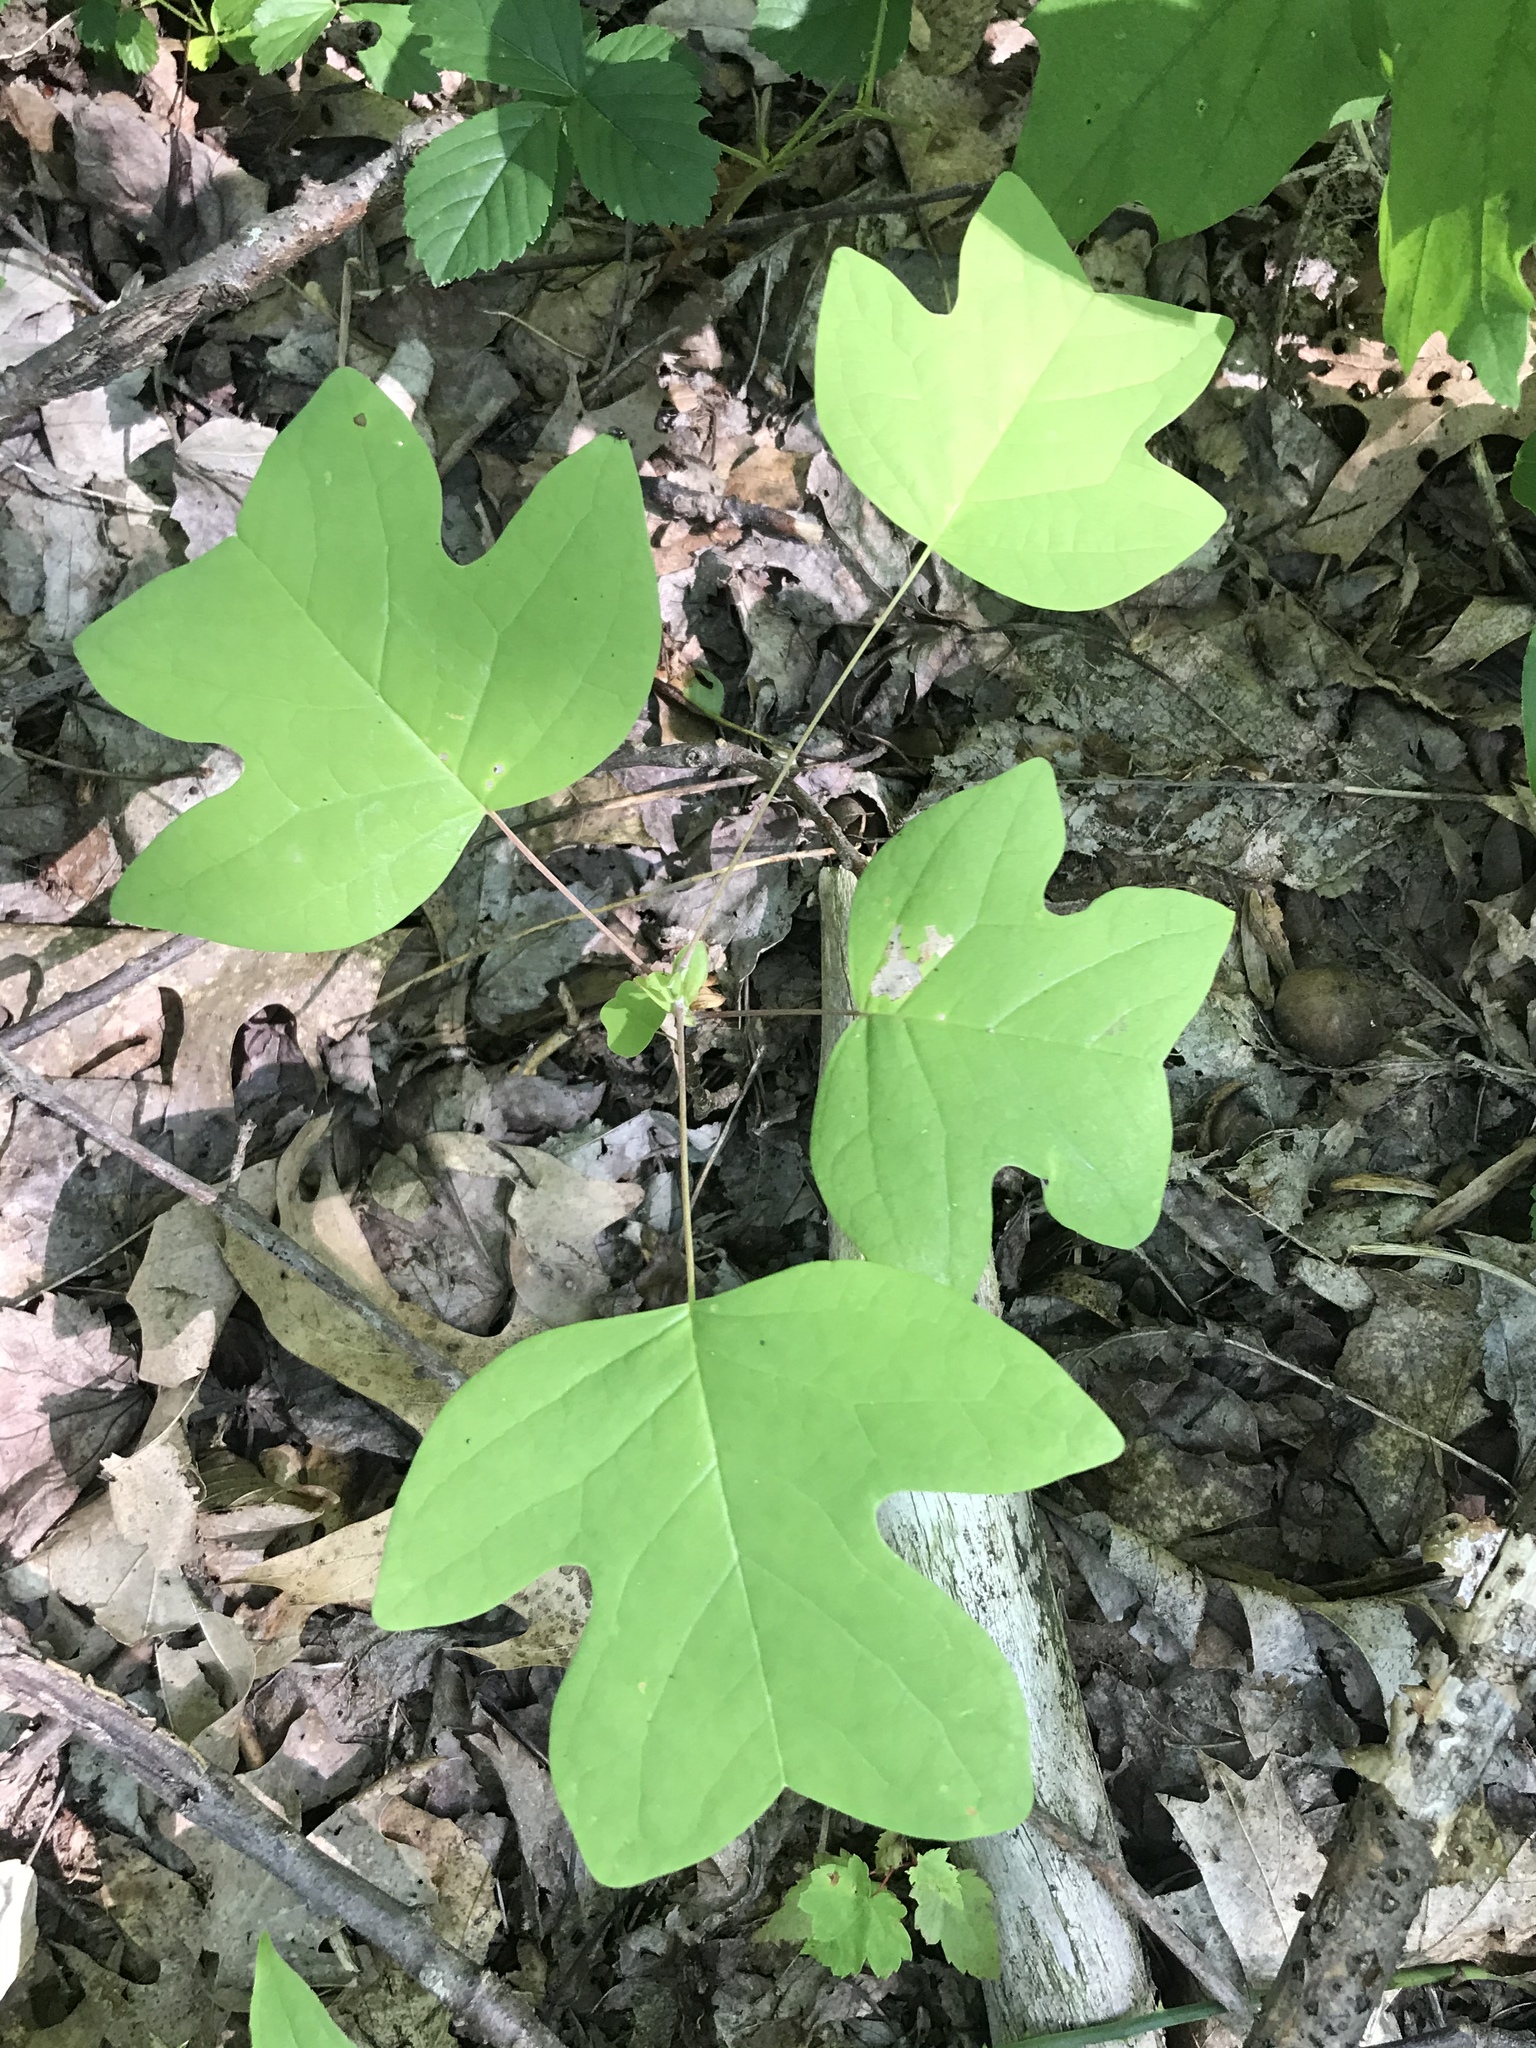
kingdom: Plantae
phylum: Tracheophyta
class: Magnoliopsida
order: Magnoliales
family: Magnoliaceae
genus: Liriodendron
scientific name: Liriodendron tulipifera
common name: Tulip tree
